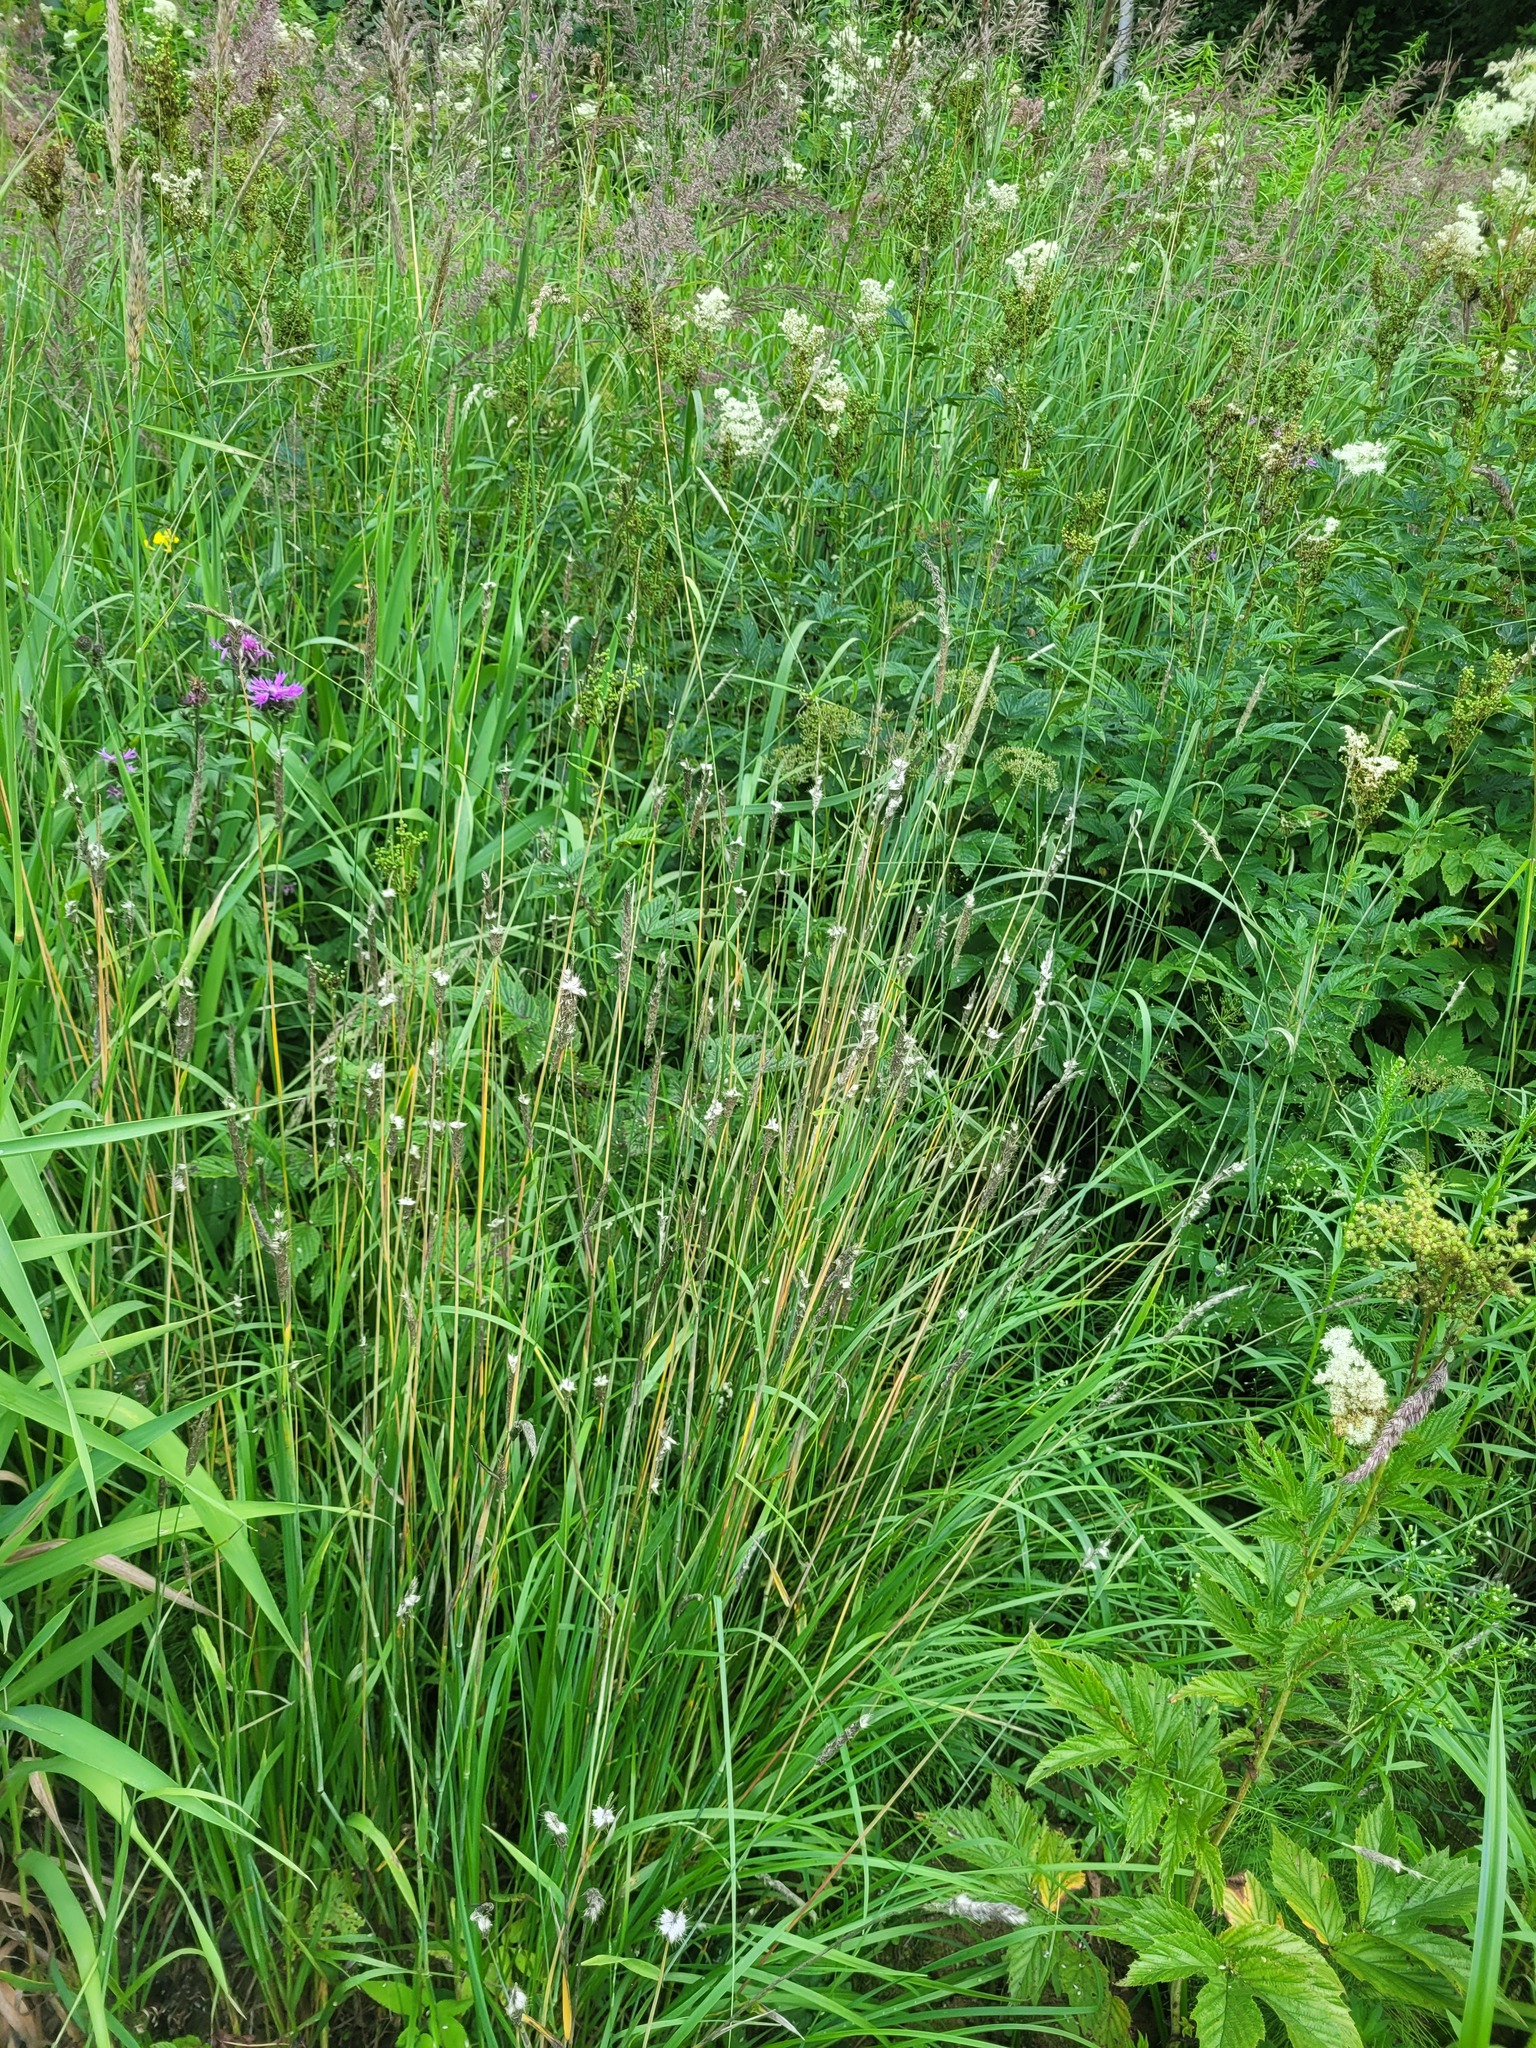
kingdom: Plantae
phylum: Tracheophyta
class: Liliopsida
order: Poales
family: Poaceae
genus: Alopecurus
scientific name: Alopecurus pratensis
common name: Meadow foxtail
